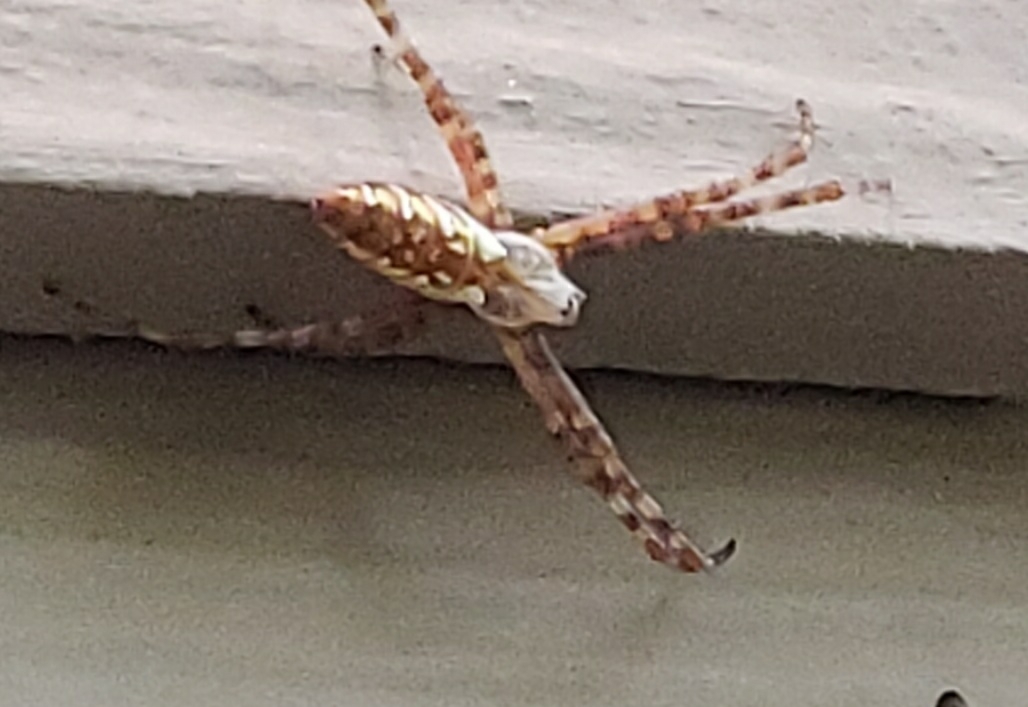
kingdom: Animalia
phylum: Arthropoda
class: Arachnida
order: Araneae
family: Araneidae
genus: Argiope
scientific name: Argiope aurantia
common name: Orb weavers
